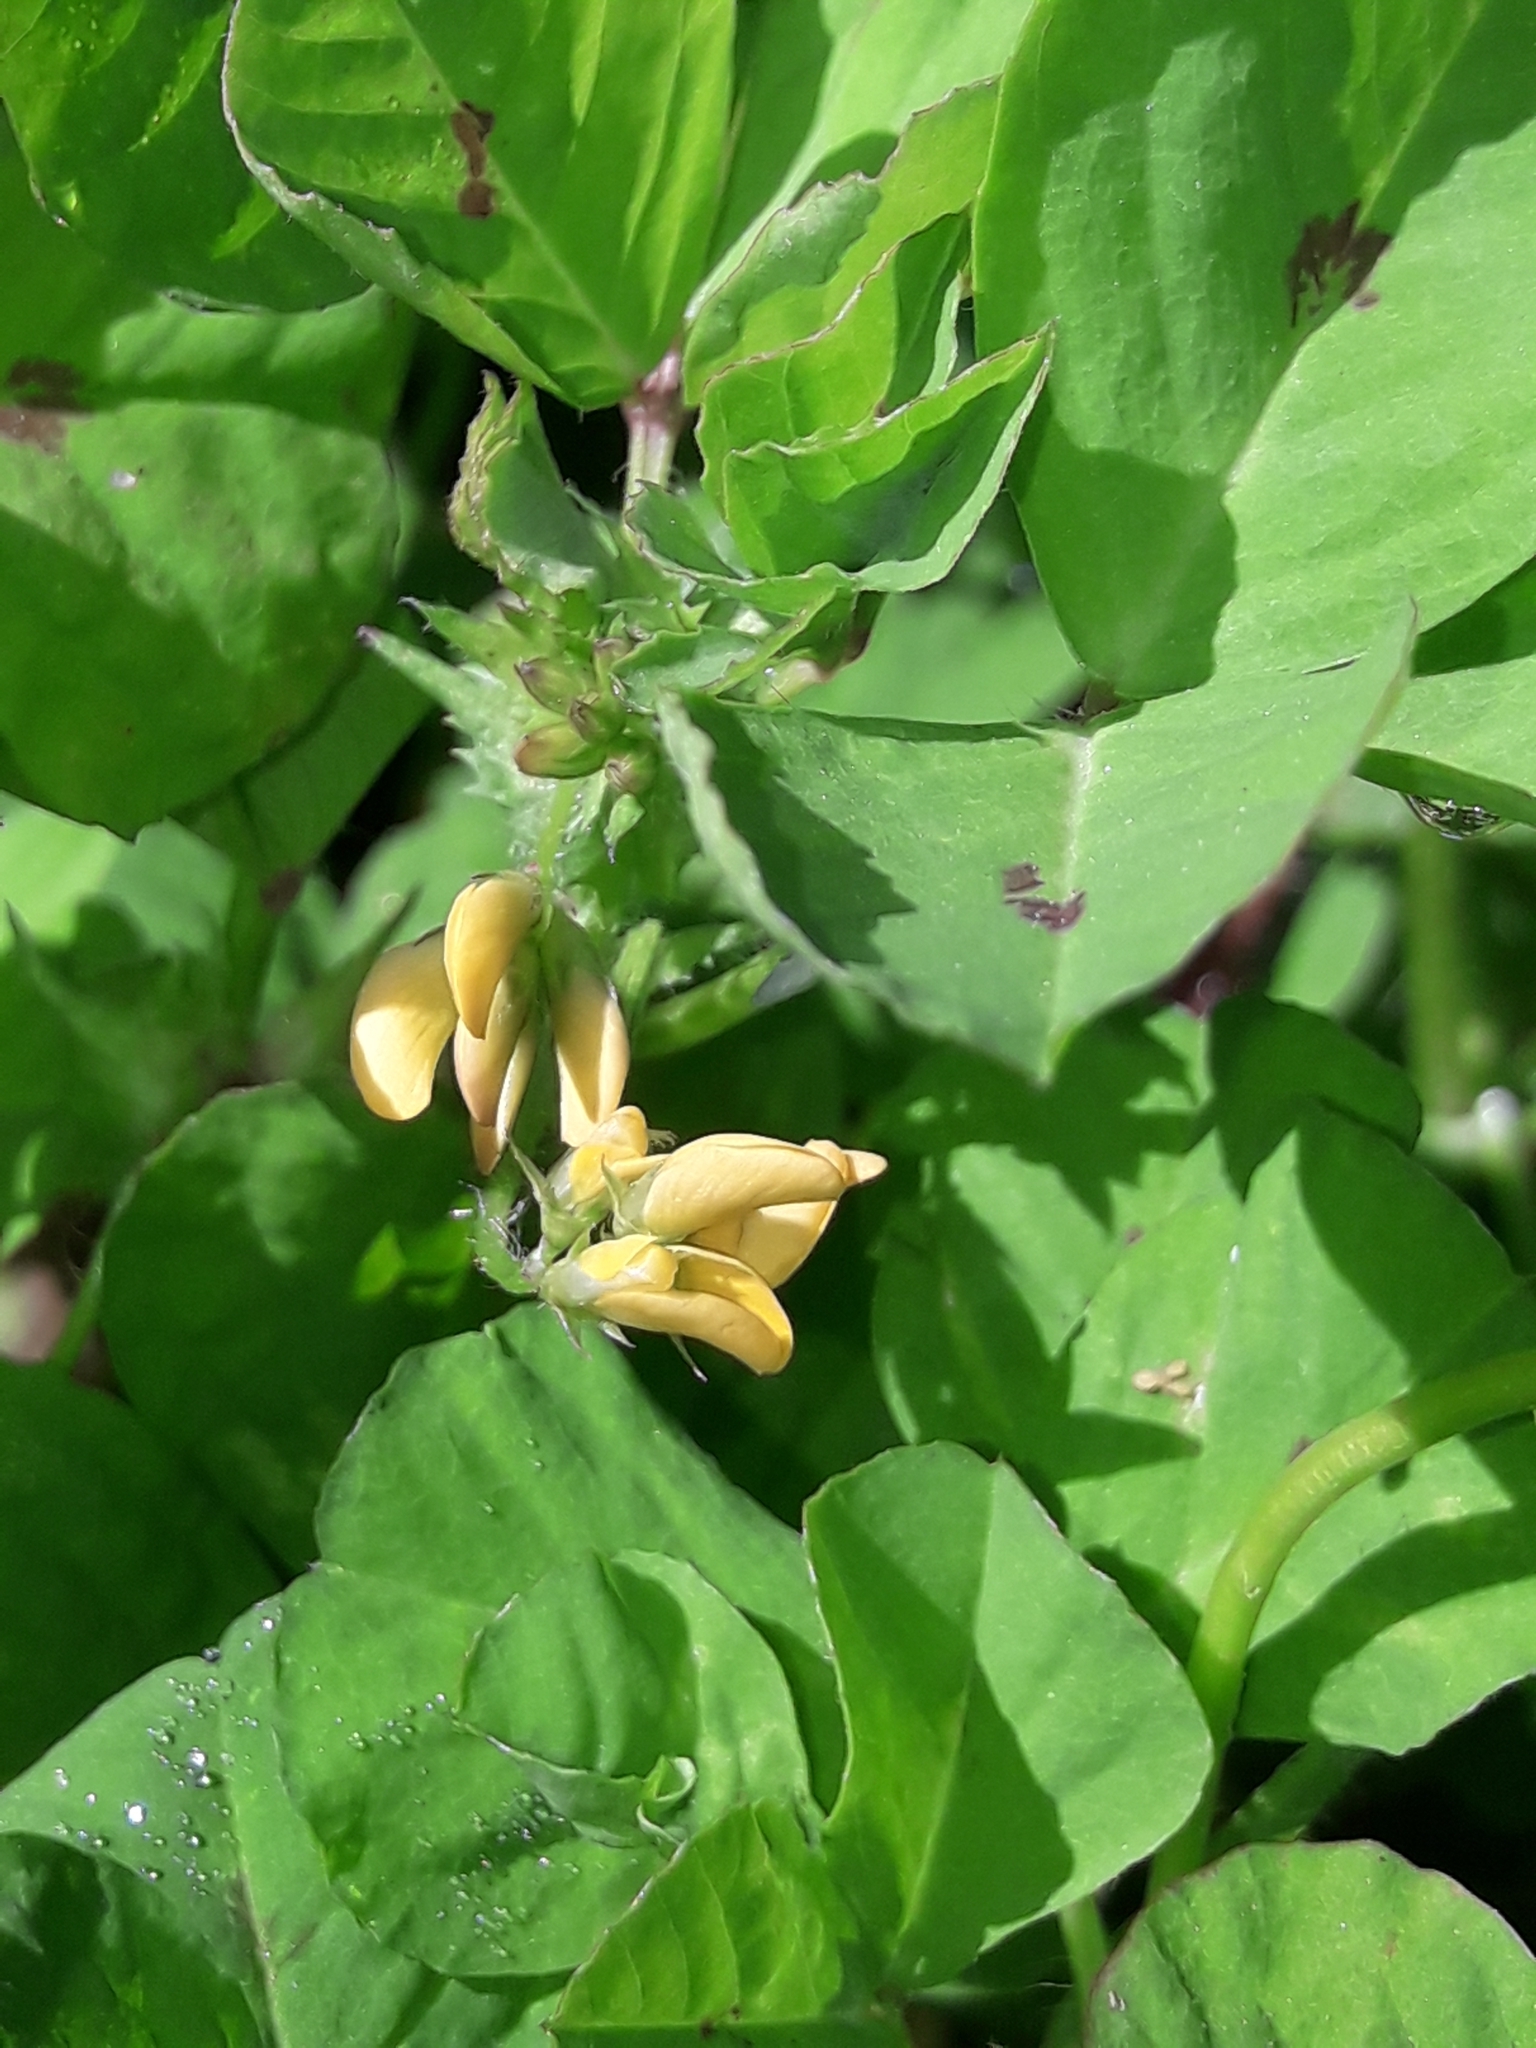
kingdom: Plantae
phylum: Tracheophyta
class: Magnoliopsida
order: Fabales
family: Fabaceae
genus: Medicago
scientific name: Medicago arabica
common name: Spotted medick
